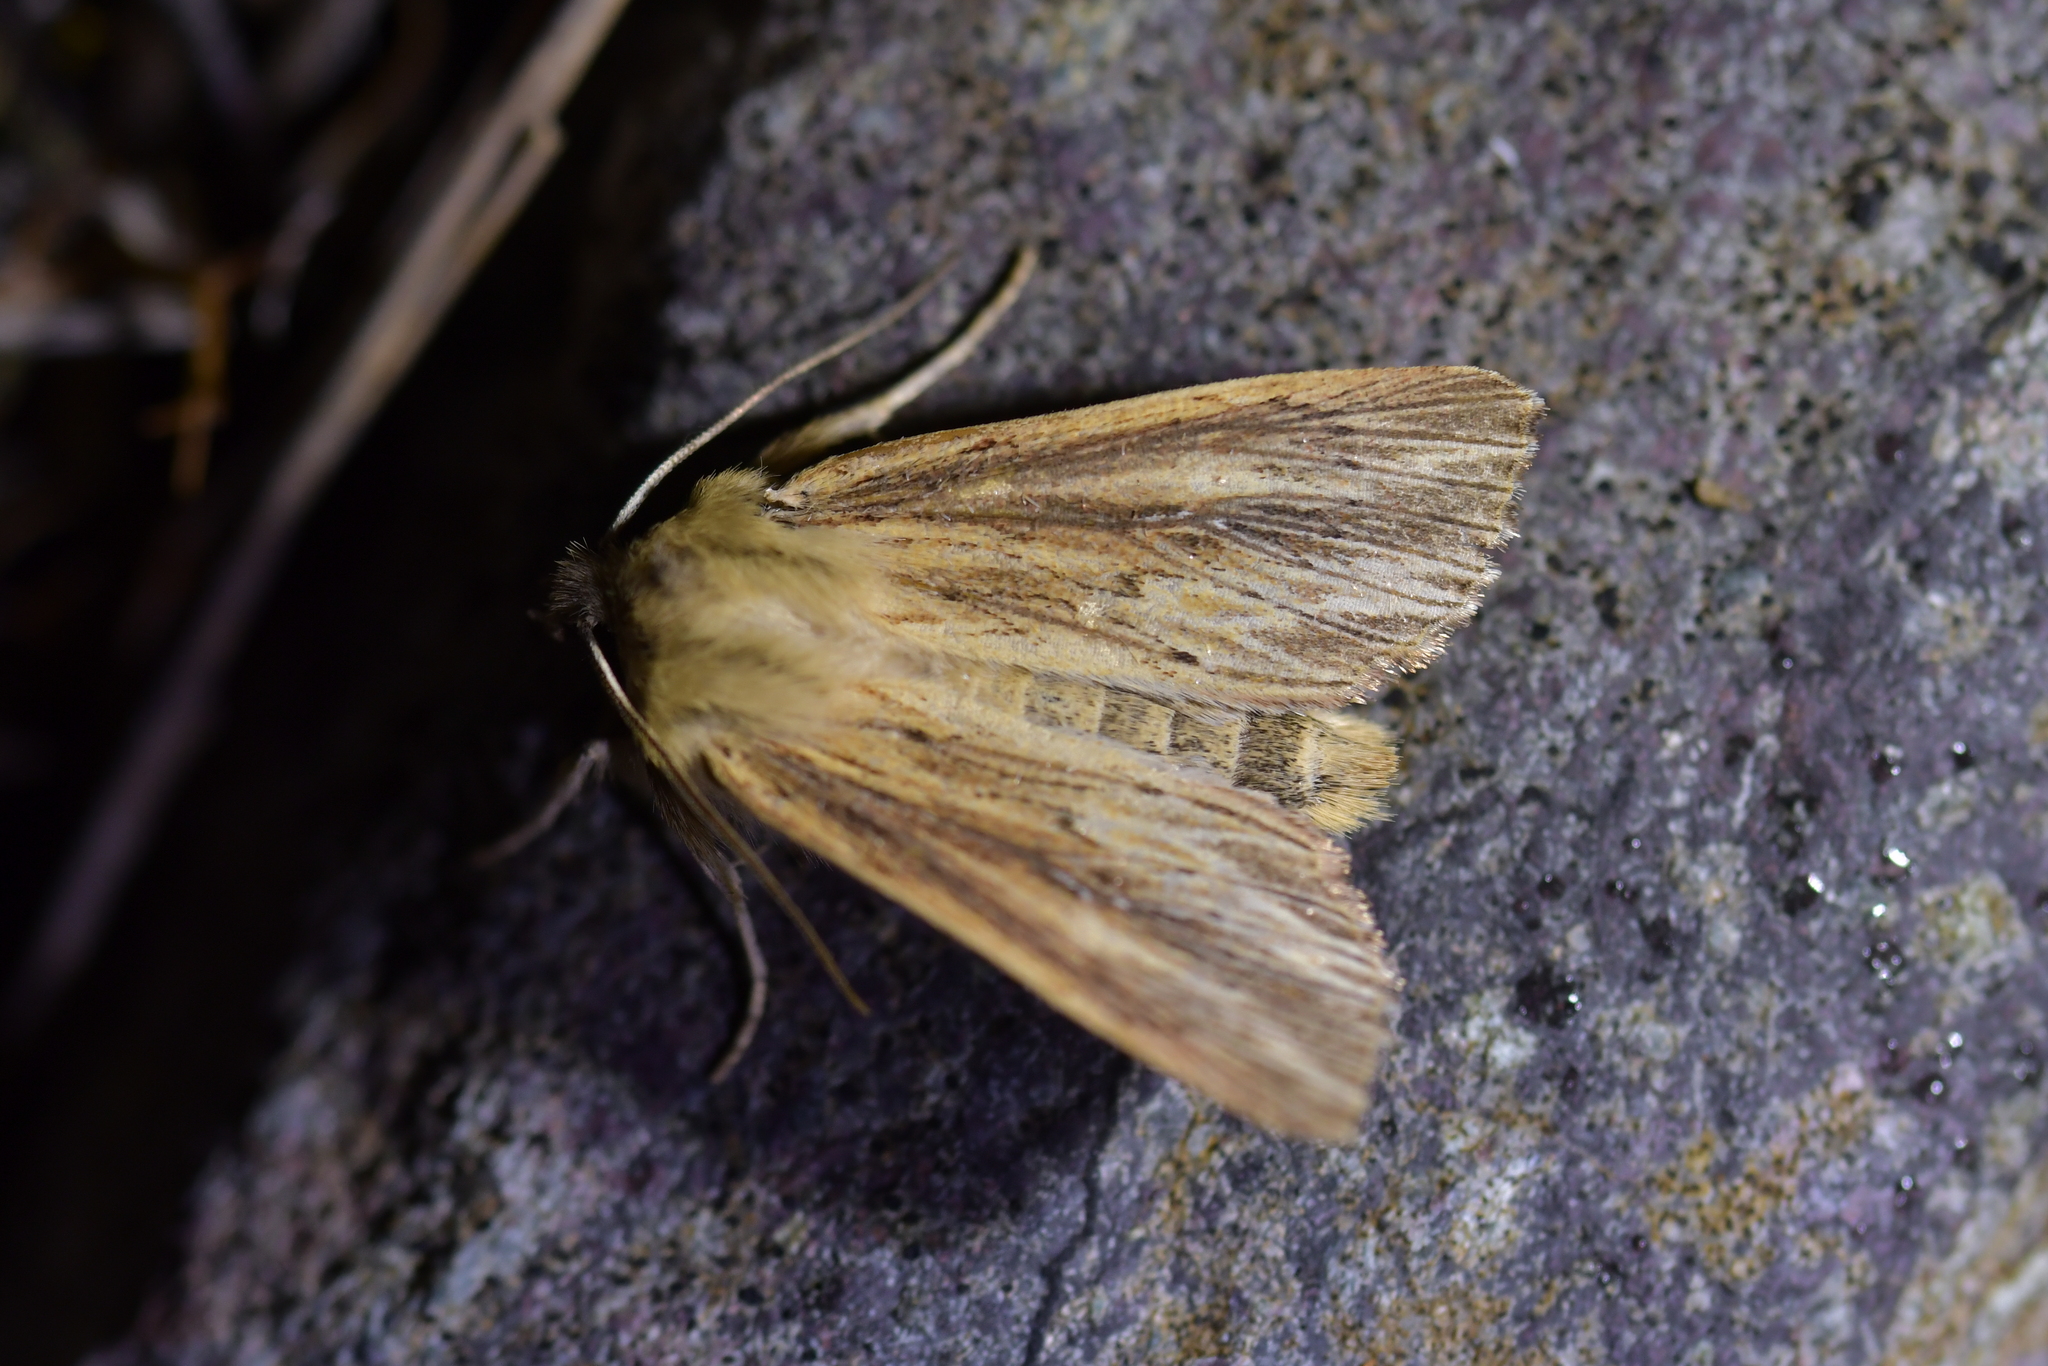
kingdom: Animalia
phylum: Arthropoda
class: Insecta
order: Lepidoptera
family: Noctuidae
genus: Ichneutica
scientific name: Ichneutica arotis
